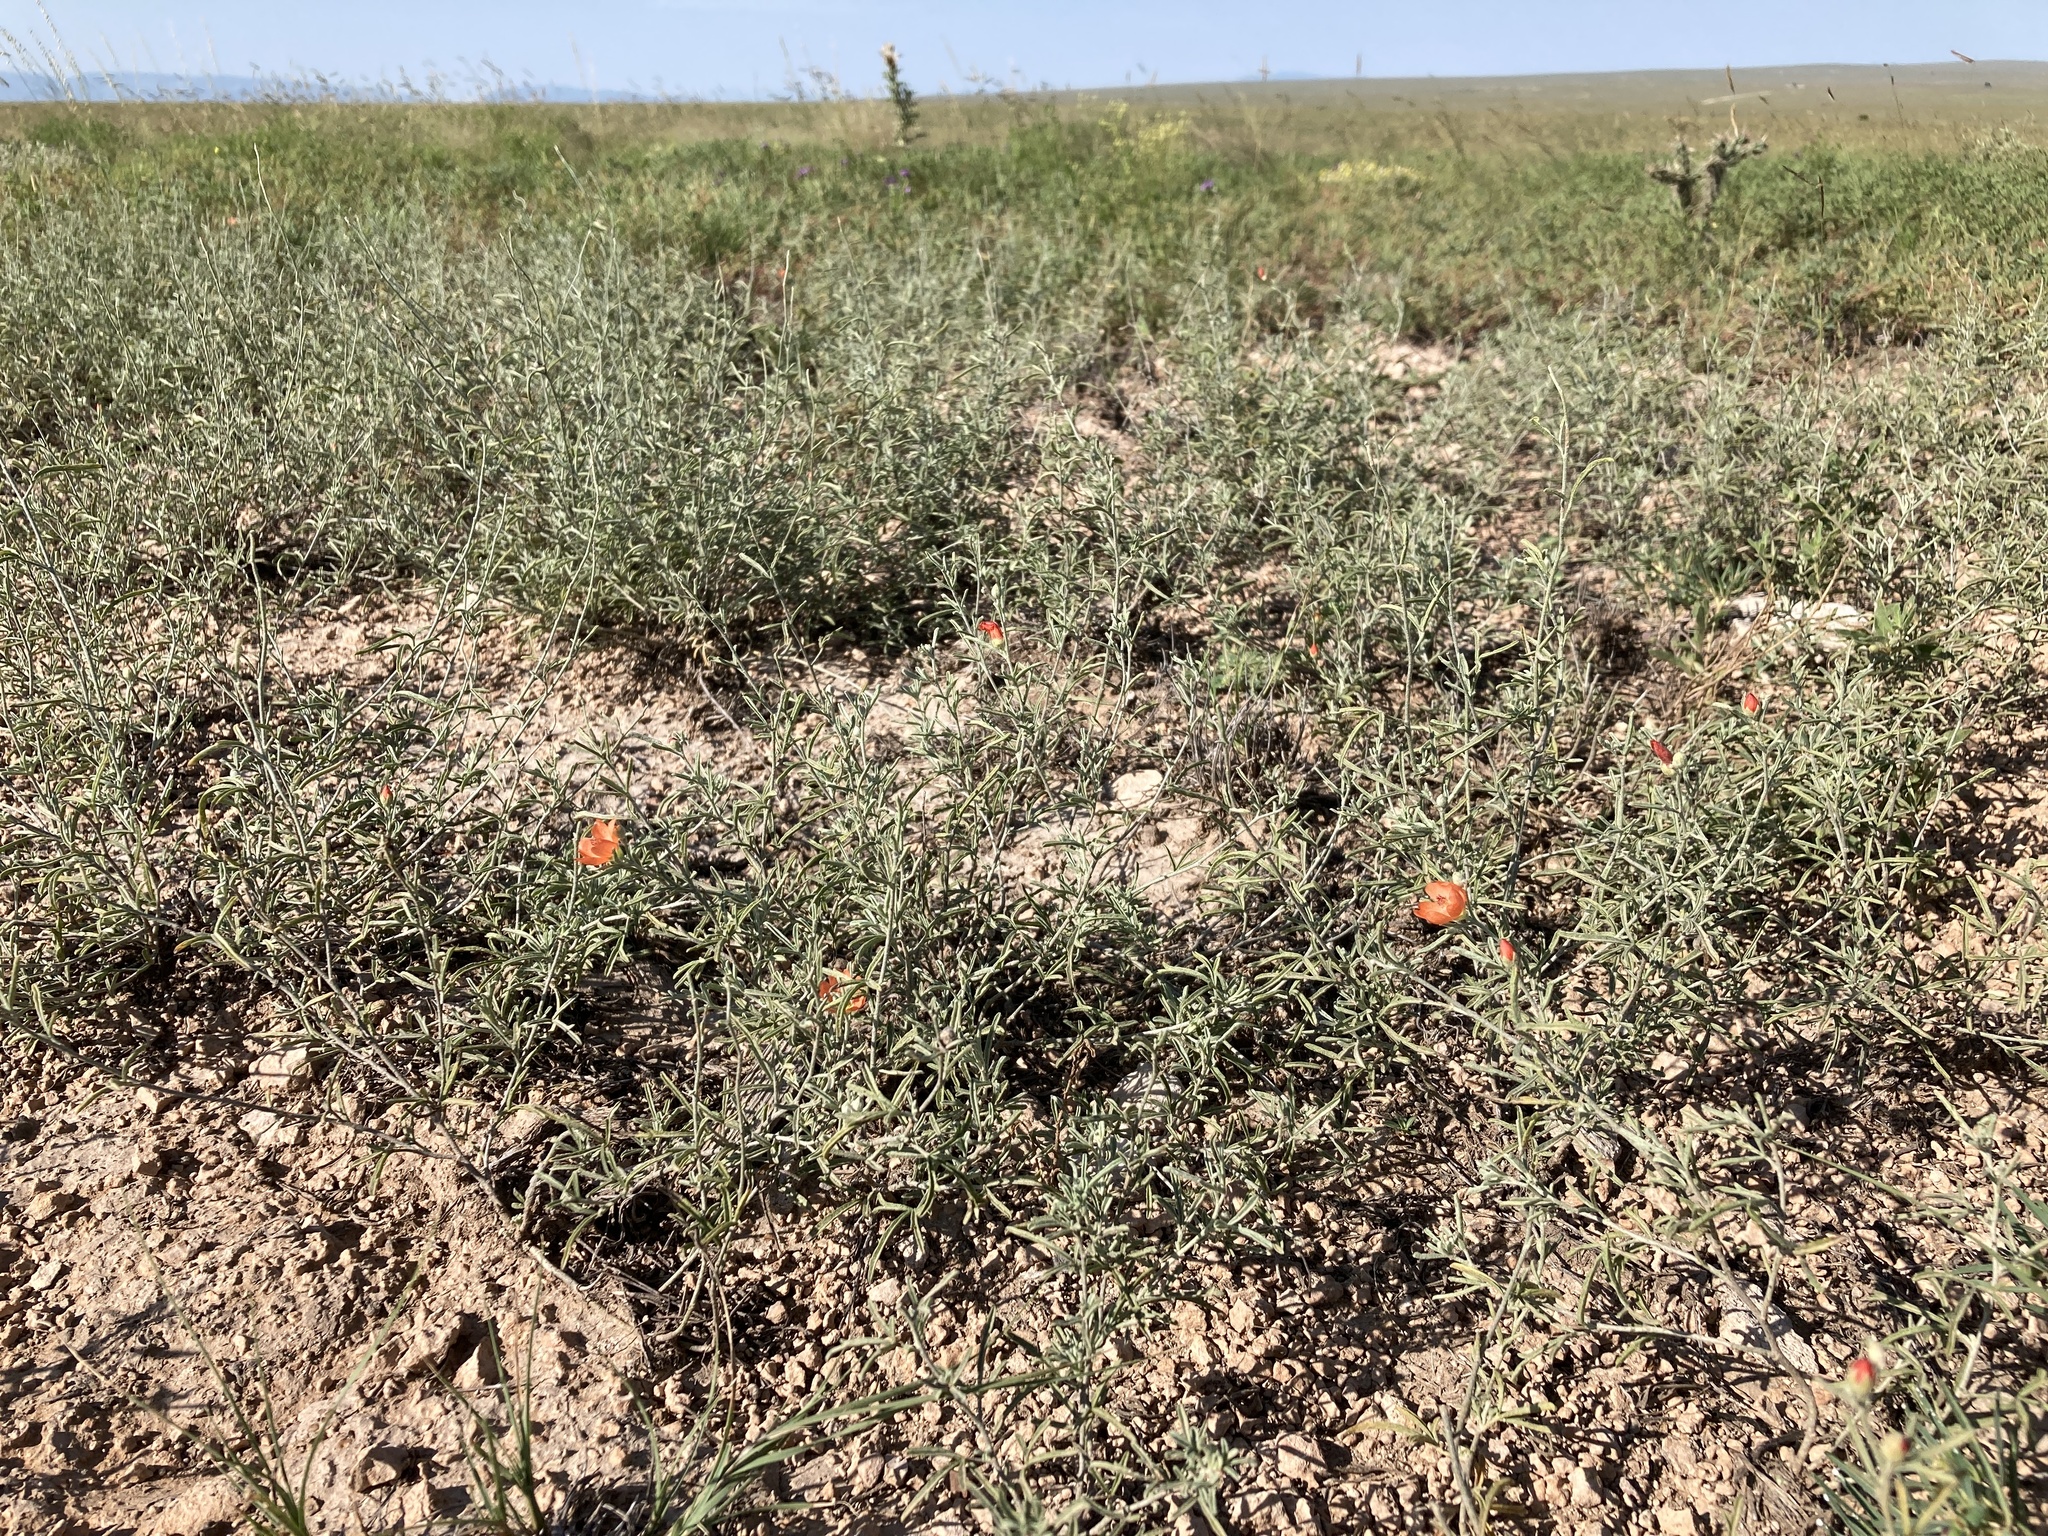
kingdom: Plantae
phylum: Tracheophyta
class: Magnoliopsida
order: Malvales
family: Malvaceae
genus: Sphaeralcea
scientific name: Sphaeralcea leptophylla
